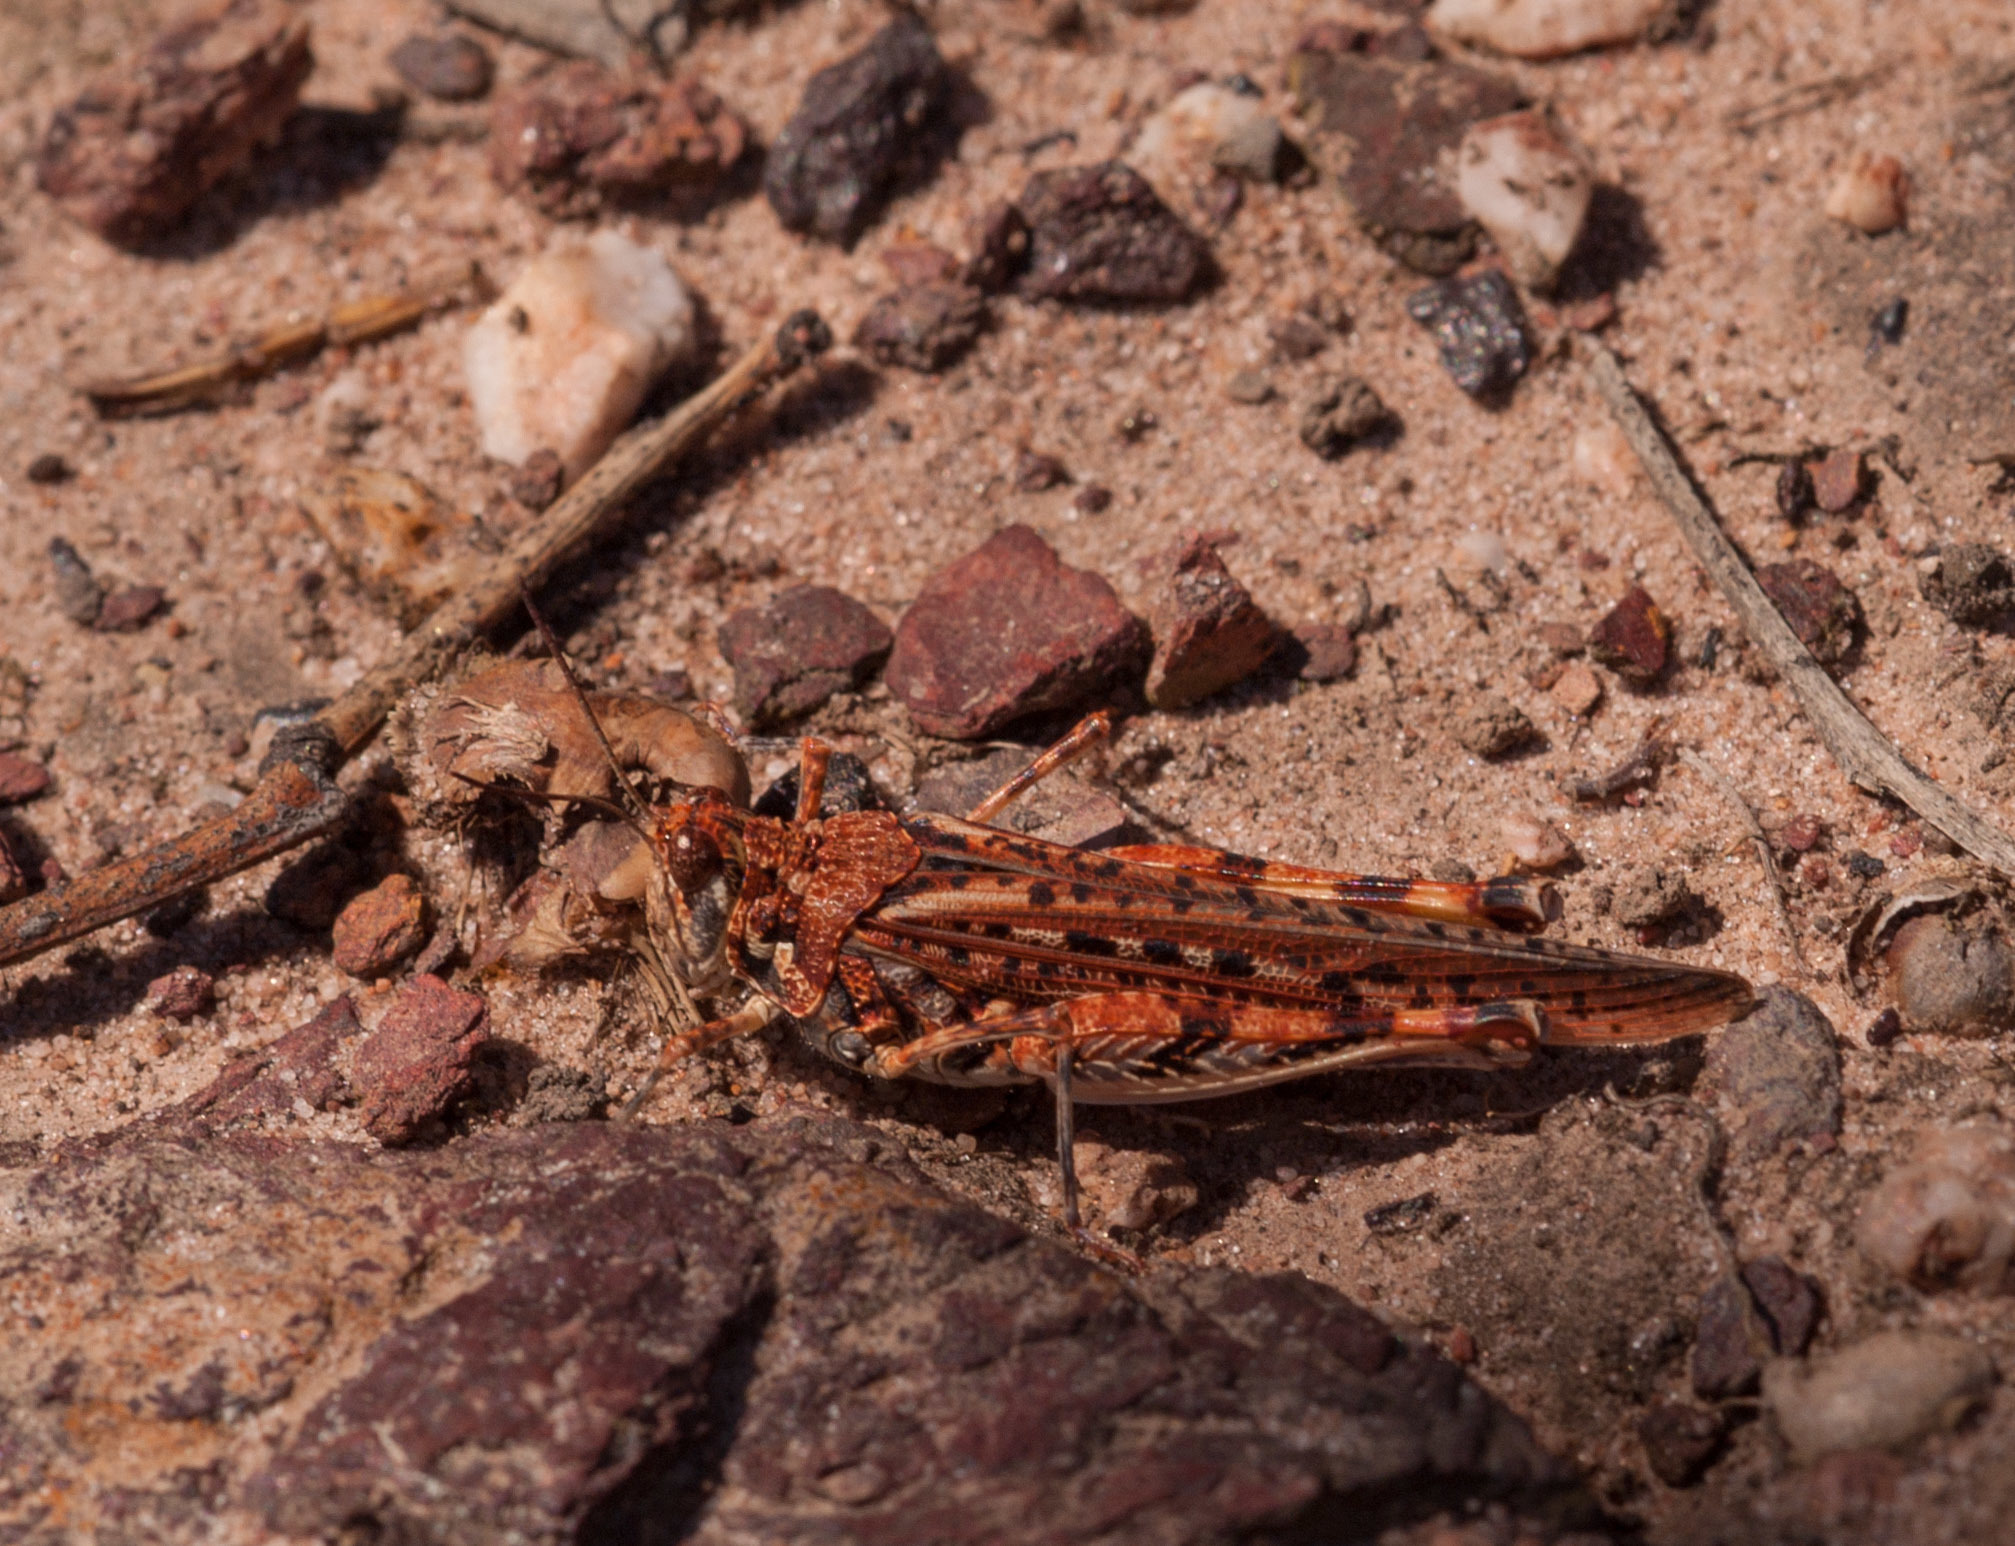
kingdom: Animalia
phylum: Arthropoda
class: Insecta
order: Orthoptera
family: Acrididae
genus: Urnisa
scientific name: Urnisa guttulosa
